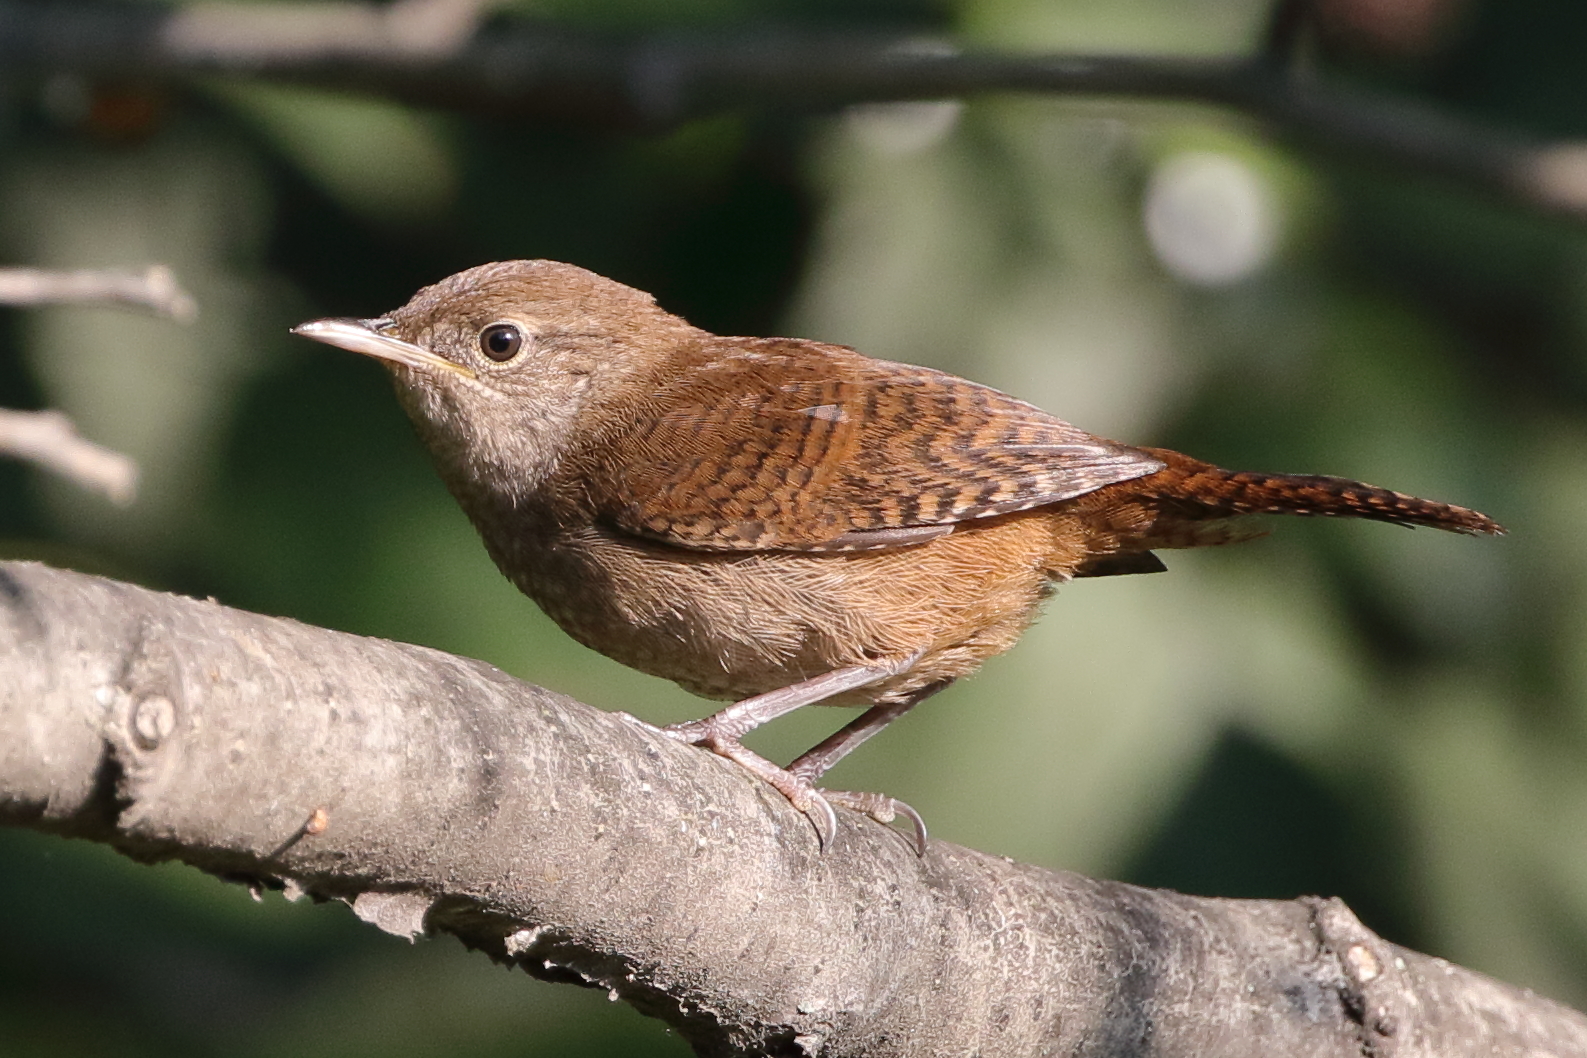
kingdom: Animalia
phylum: Chordata
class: Aves
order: Passeriformes
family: Troglodytidae
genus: Troglodytes
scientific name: Troglodytes aedon
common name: House wren
